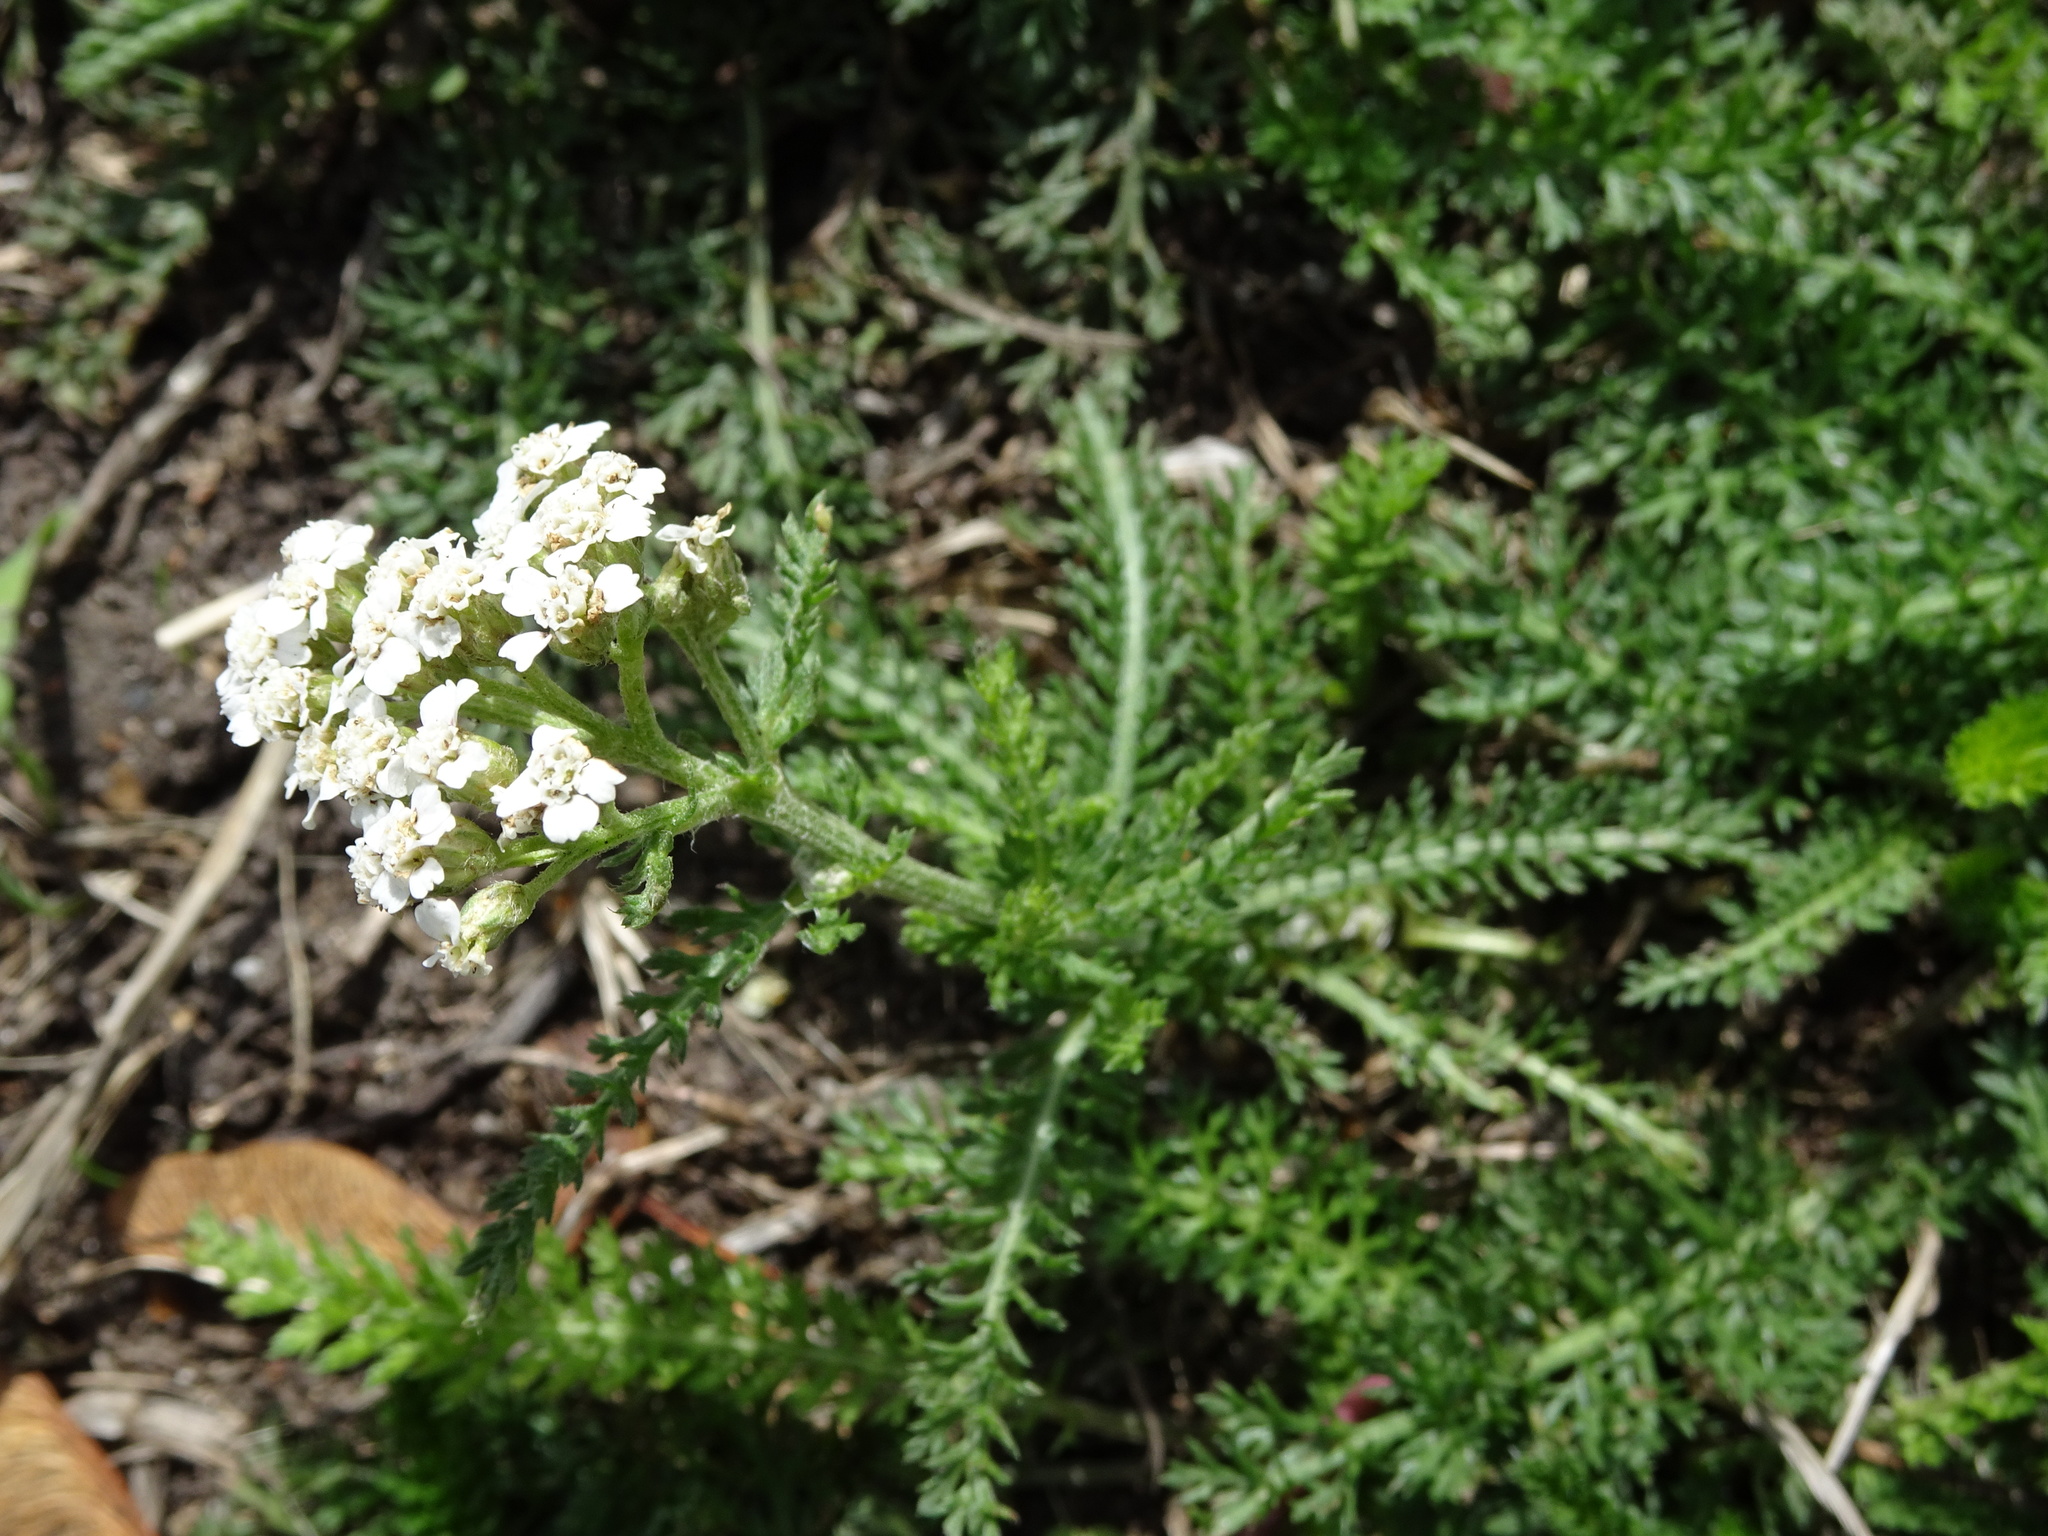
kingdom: Plantae
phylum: Tracheophyta
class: Magnoliopsida
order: Asterales
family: Asteraceae
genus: Achillea
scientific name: Achillea millefolium
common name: Yarrow
